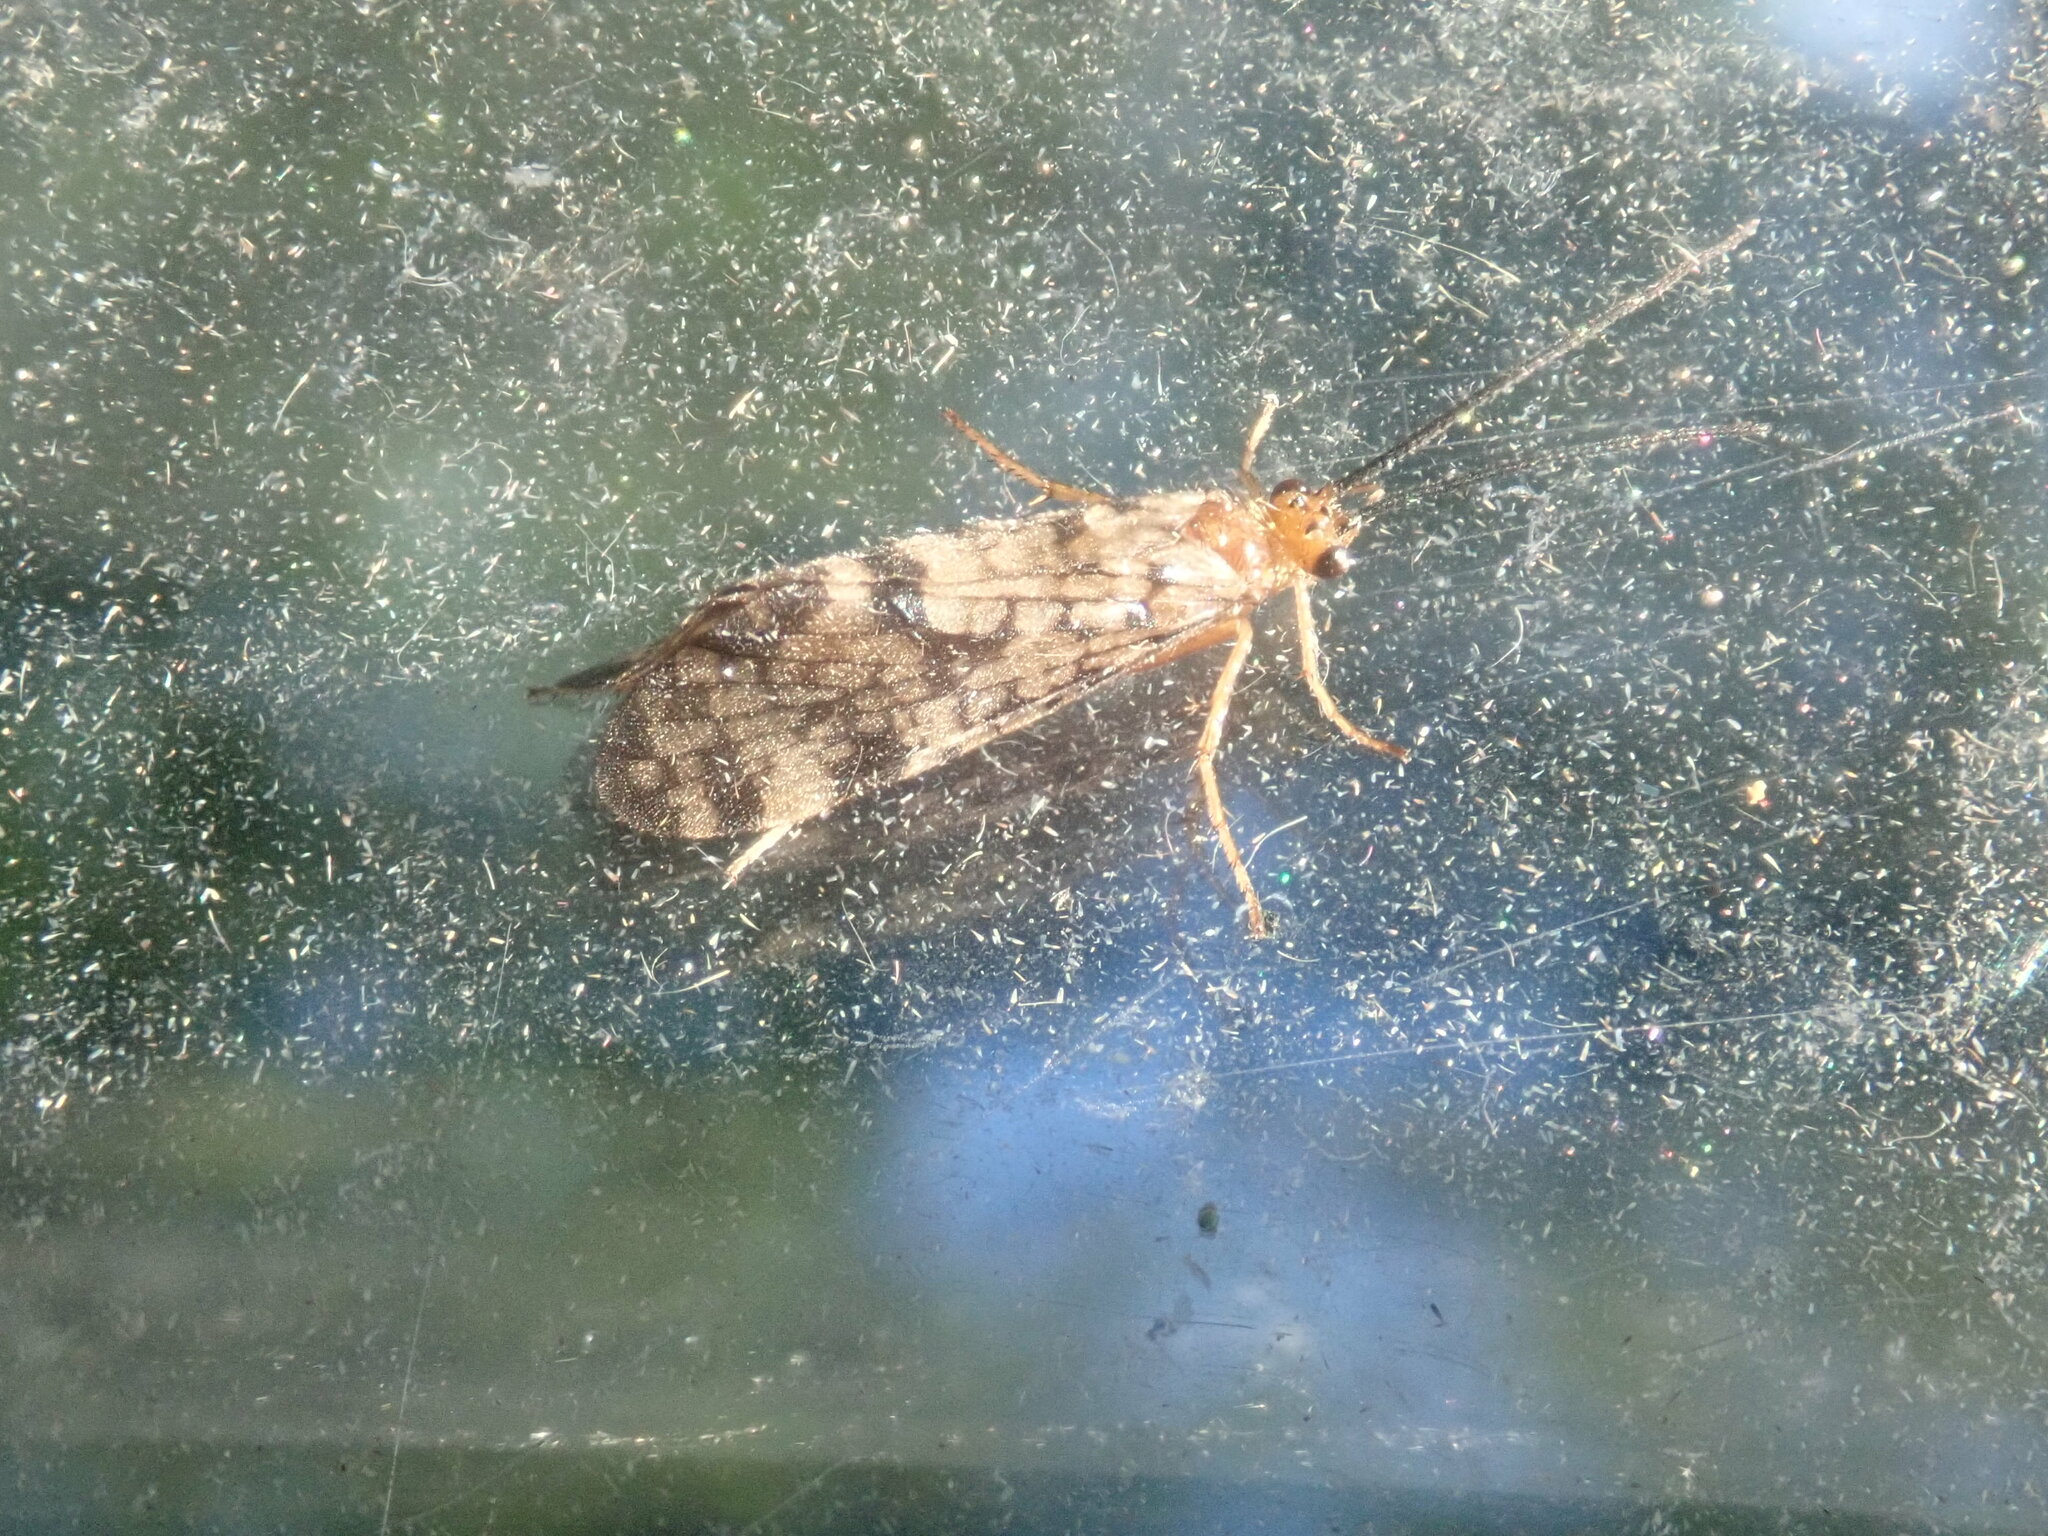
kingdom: Animalia
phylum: Arthropoda
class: Insecta
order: Trichoptera
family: Phryganeidae
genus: Banksiola
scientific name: Banksiola dossuaria
